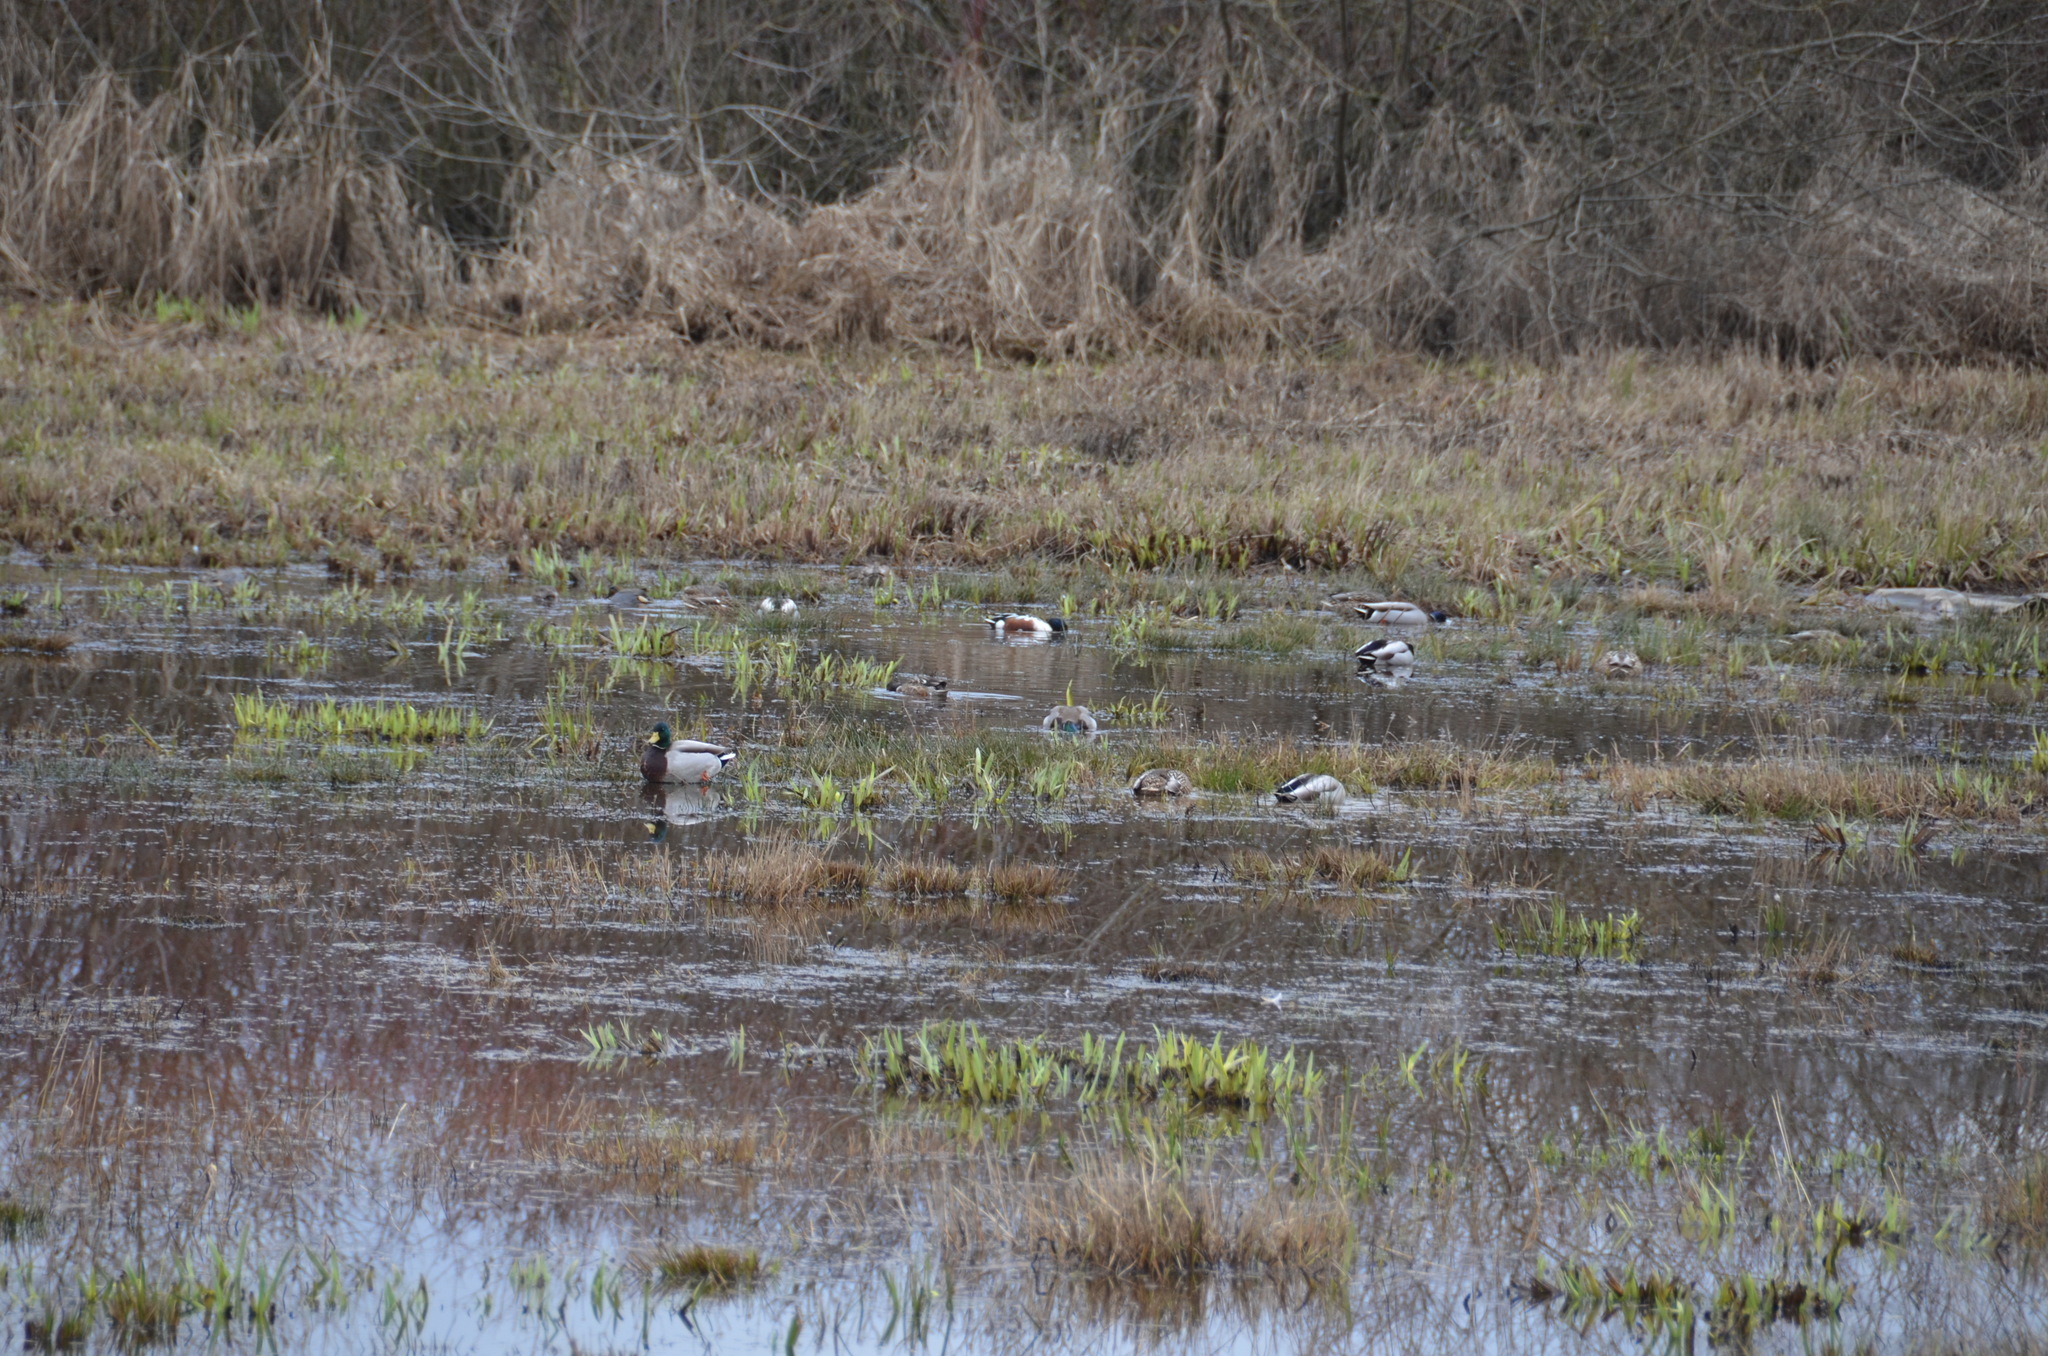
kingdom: Animalia
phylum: Chordata
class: Aves
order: Anseriformes
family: Anatidae
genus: Anas
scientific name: Anas platyrhynchos
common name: Mallard
